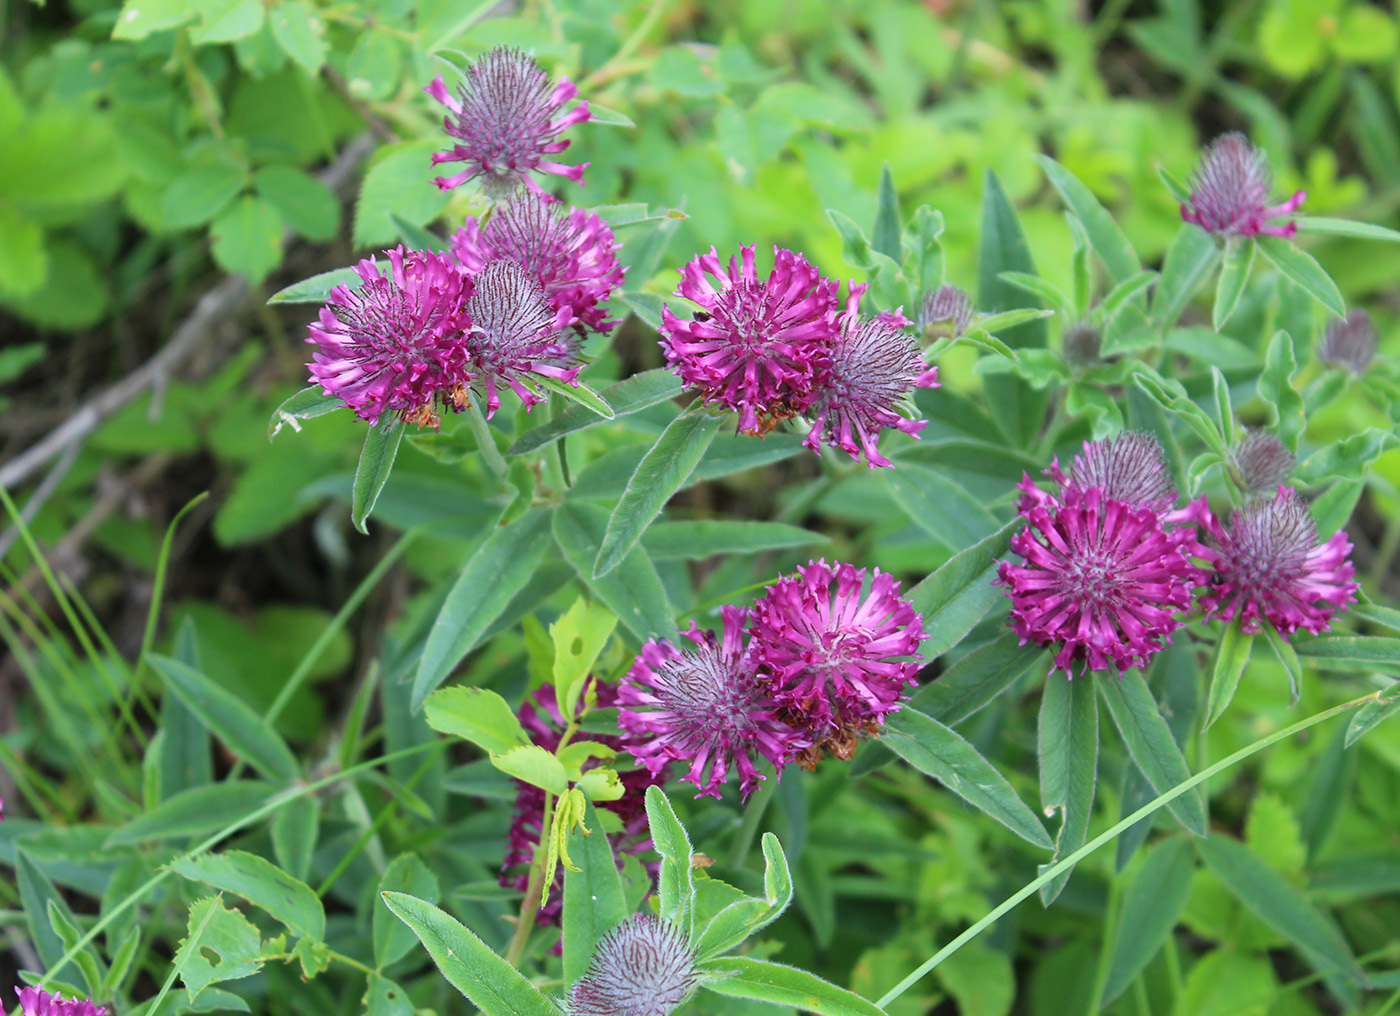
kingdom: Plantae
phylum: Tracheophyta
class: Magnoliopsida
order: Fabales
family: Fabaceae
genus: Trifolium
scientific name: Trifolium alpestre
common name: Owl-head clover
